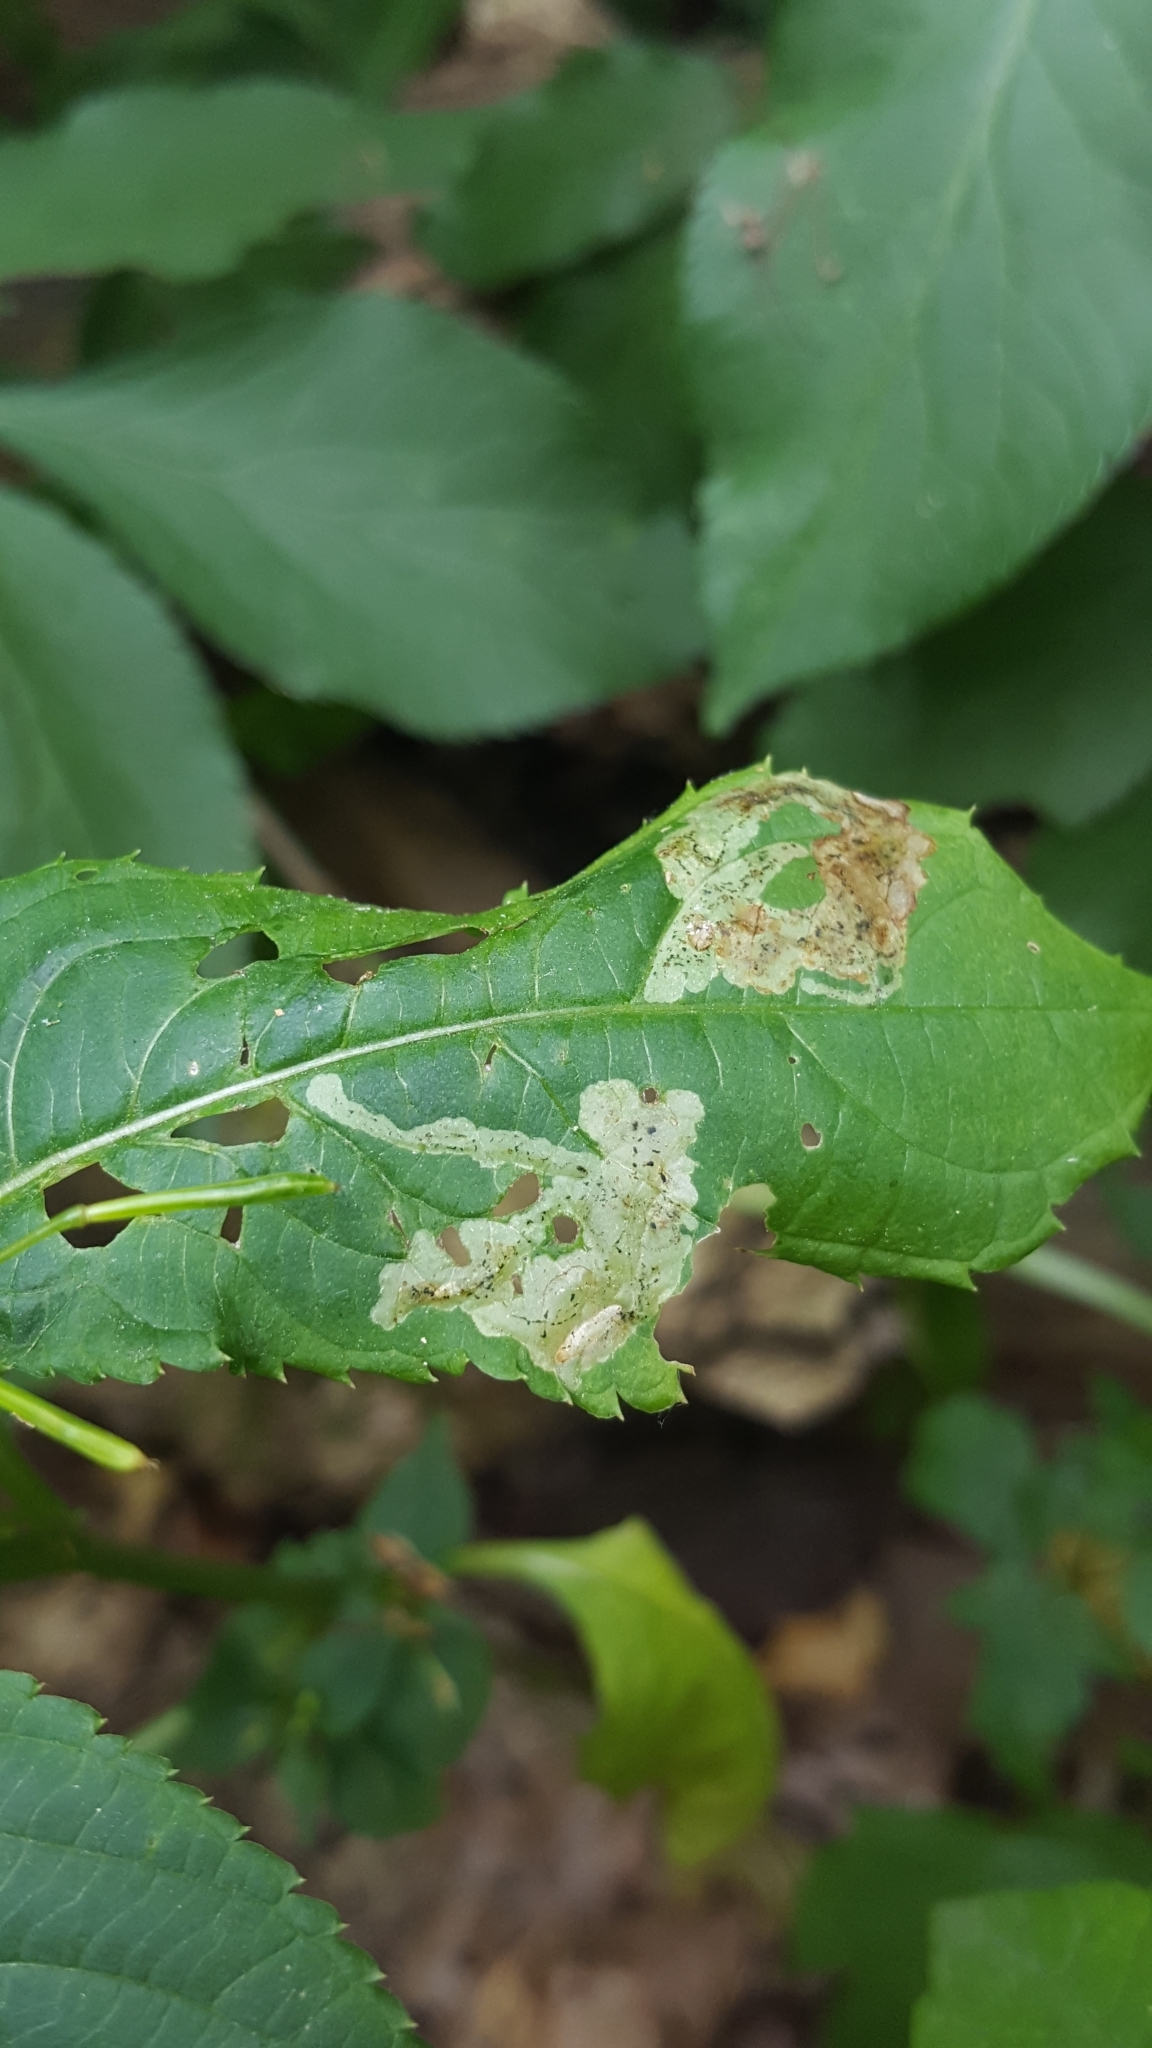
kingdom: Animalia
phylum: Arthropoda
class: Insecta
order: Diptera
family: Agromyzidae
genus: Phytoliriomyza
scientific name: Phytoliriomyza melampyga
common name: Jewelweed leaf-miner fly
